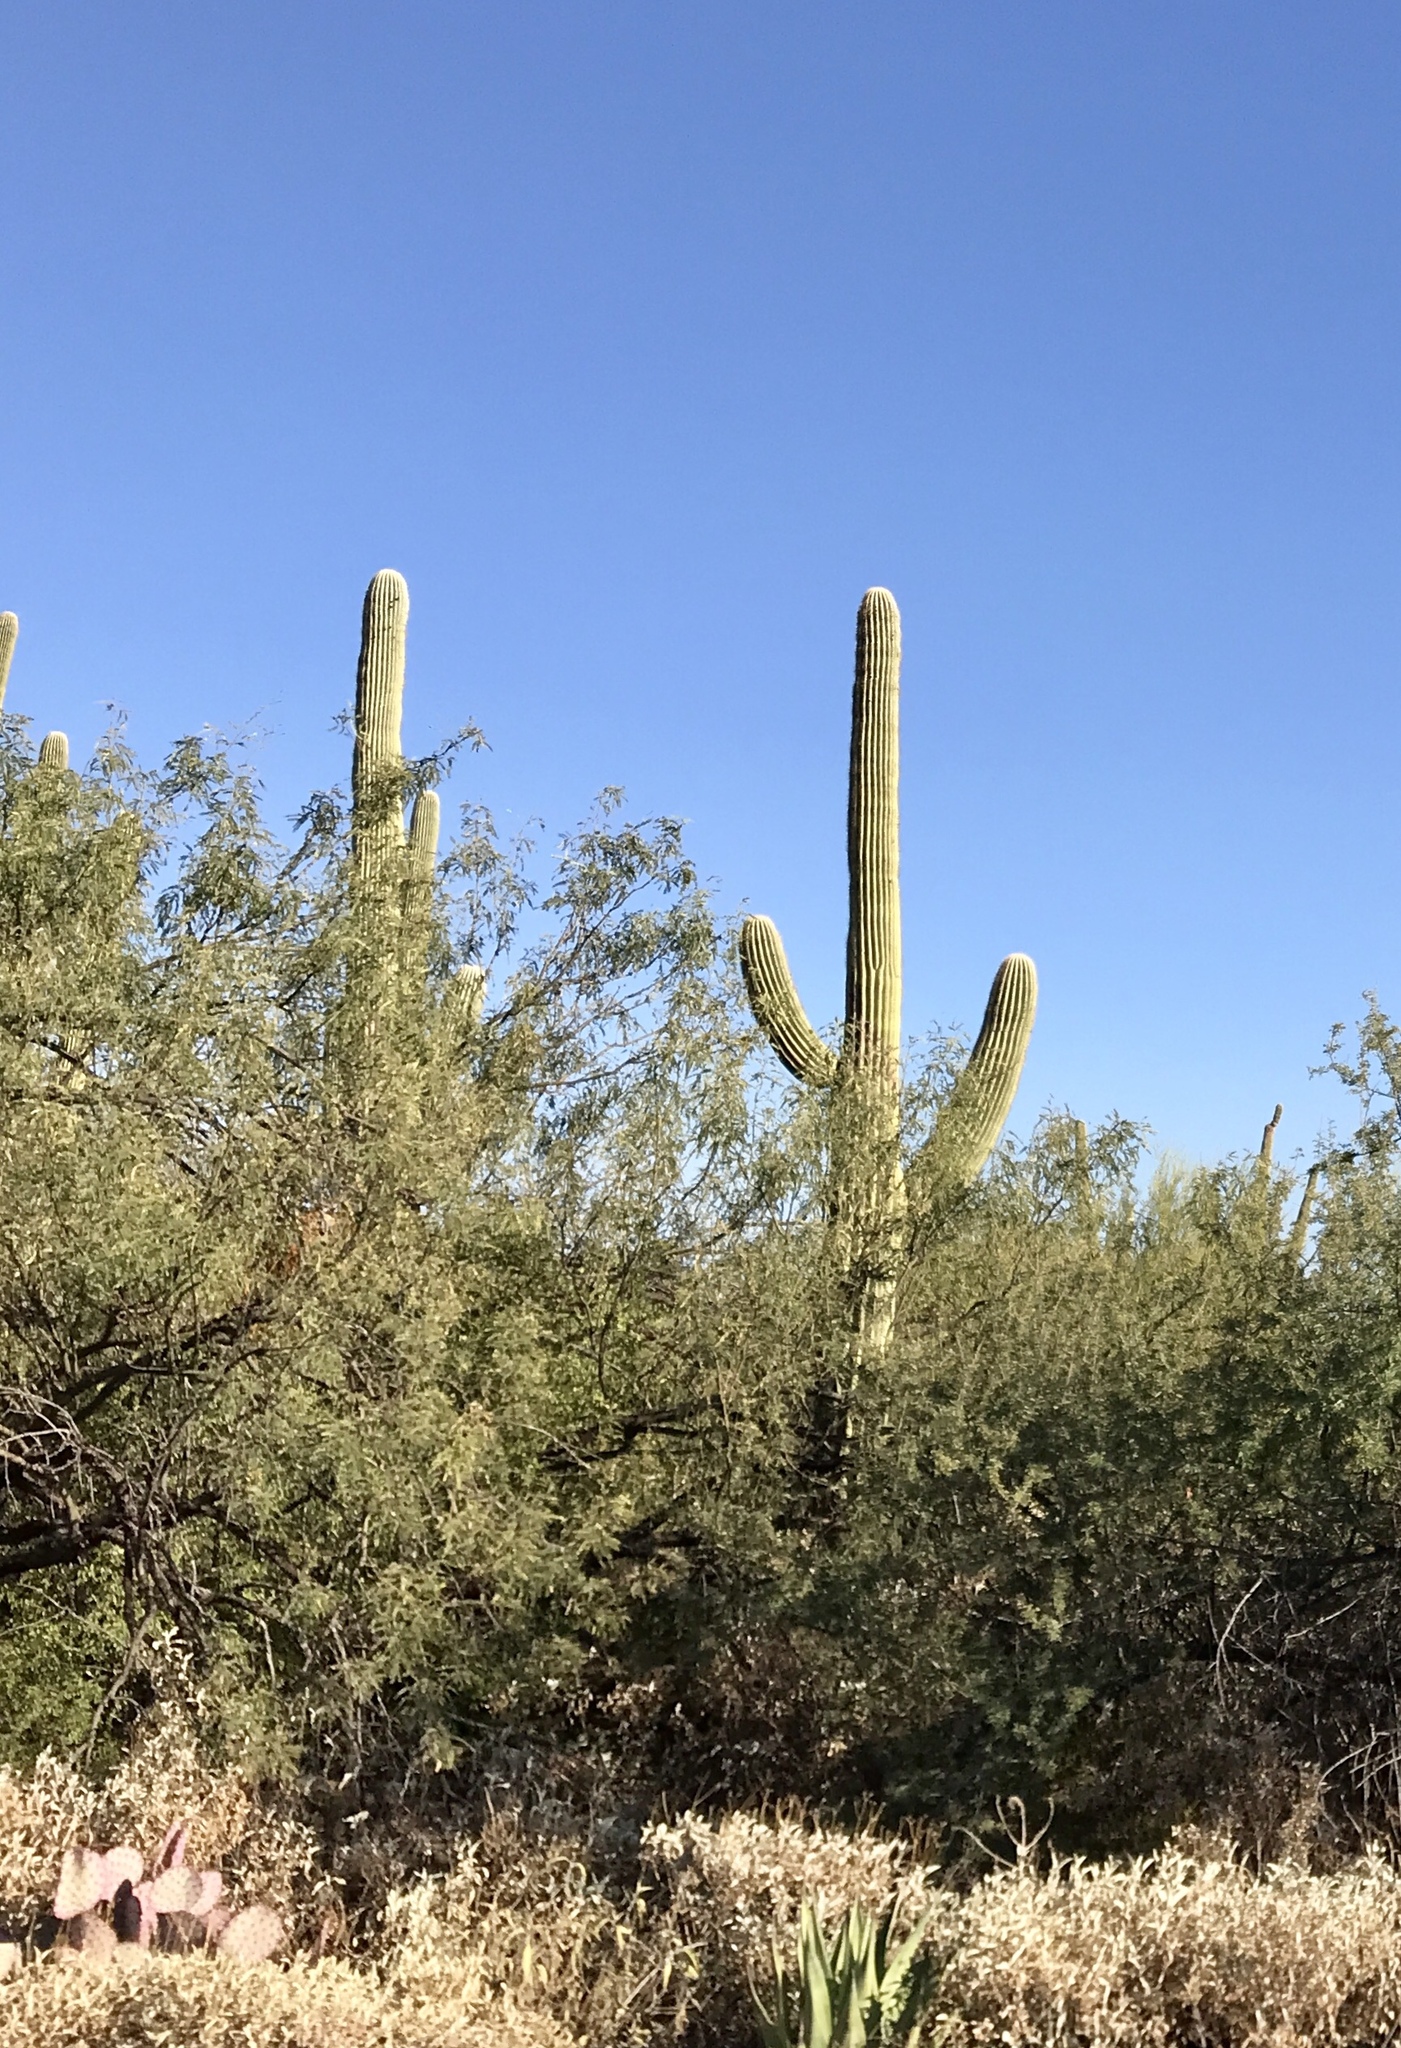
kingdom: Plantae
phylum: Tracheophyta
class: Magnoliopsida
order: Caryophyllales
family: Cactaceae
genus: Carnegiea
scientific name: Carnegiea gigantea
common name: Saguaro
